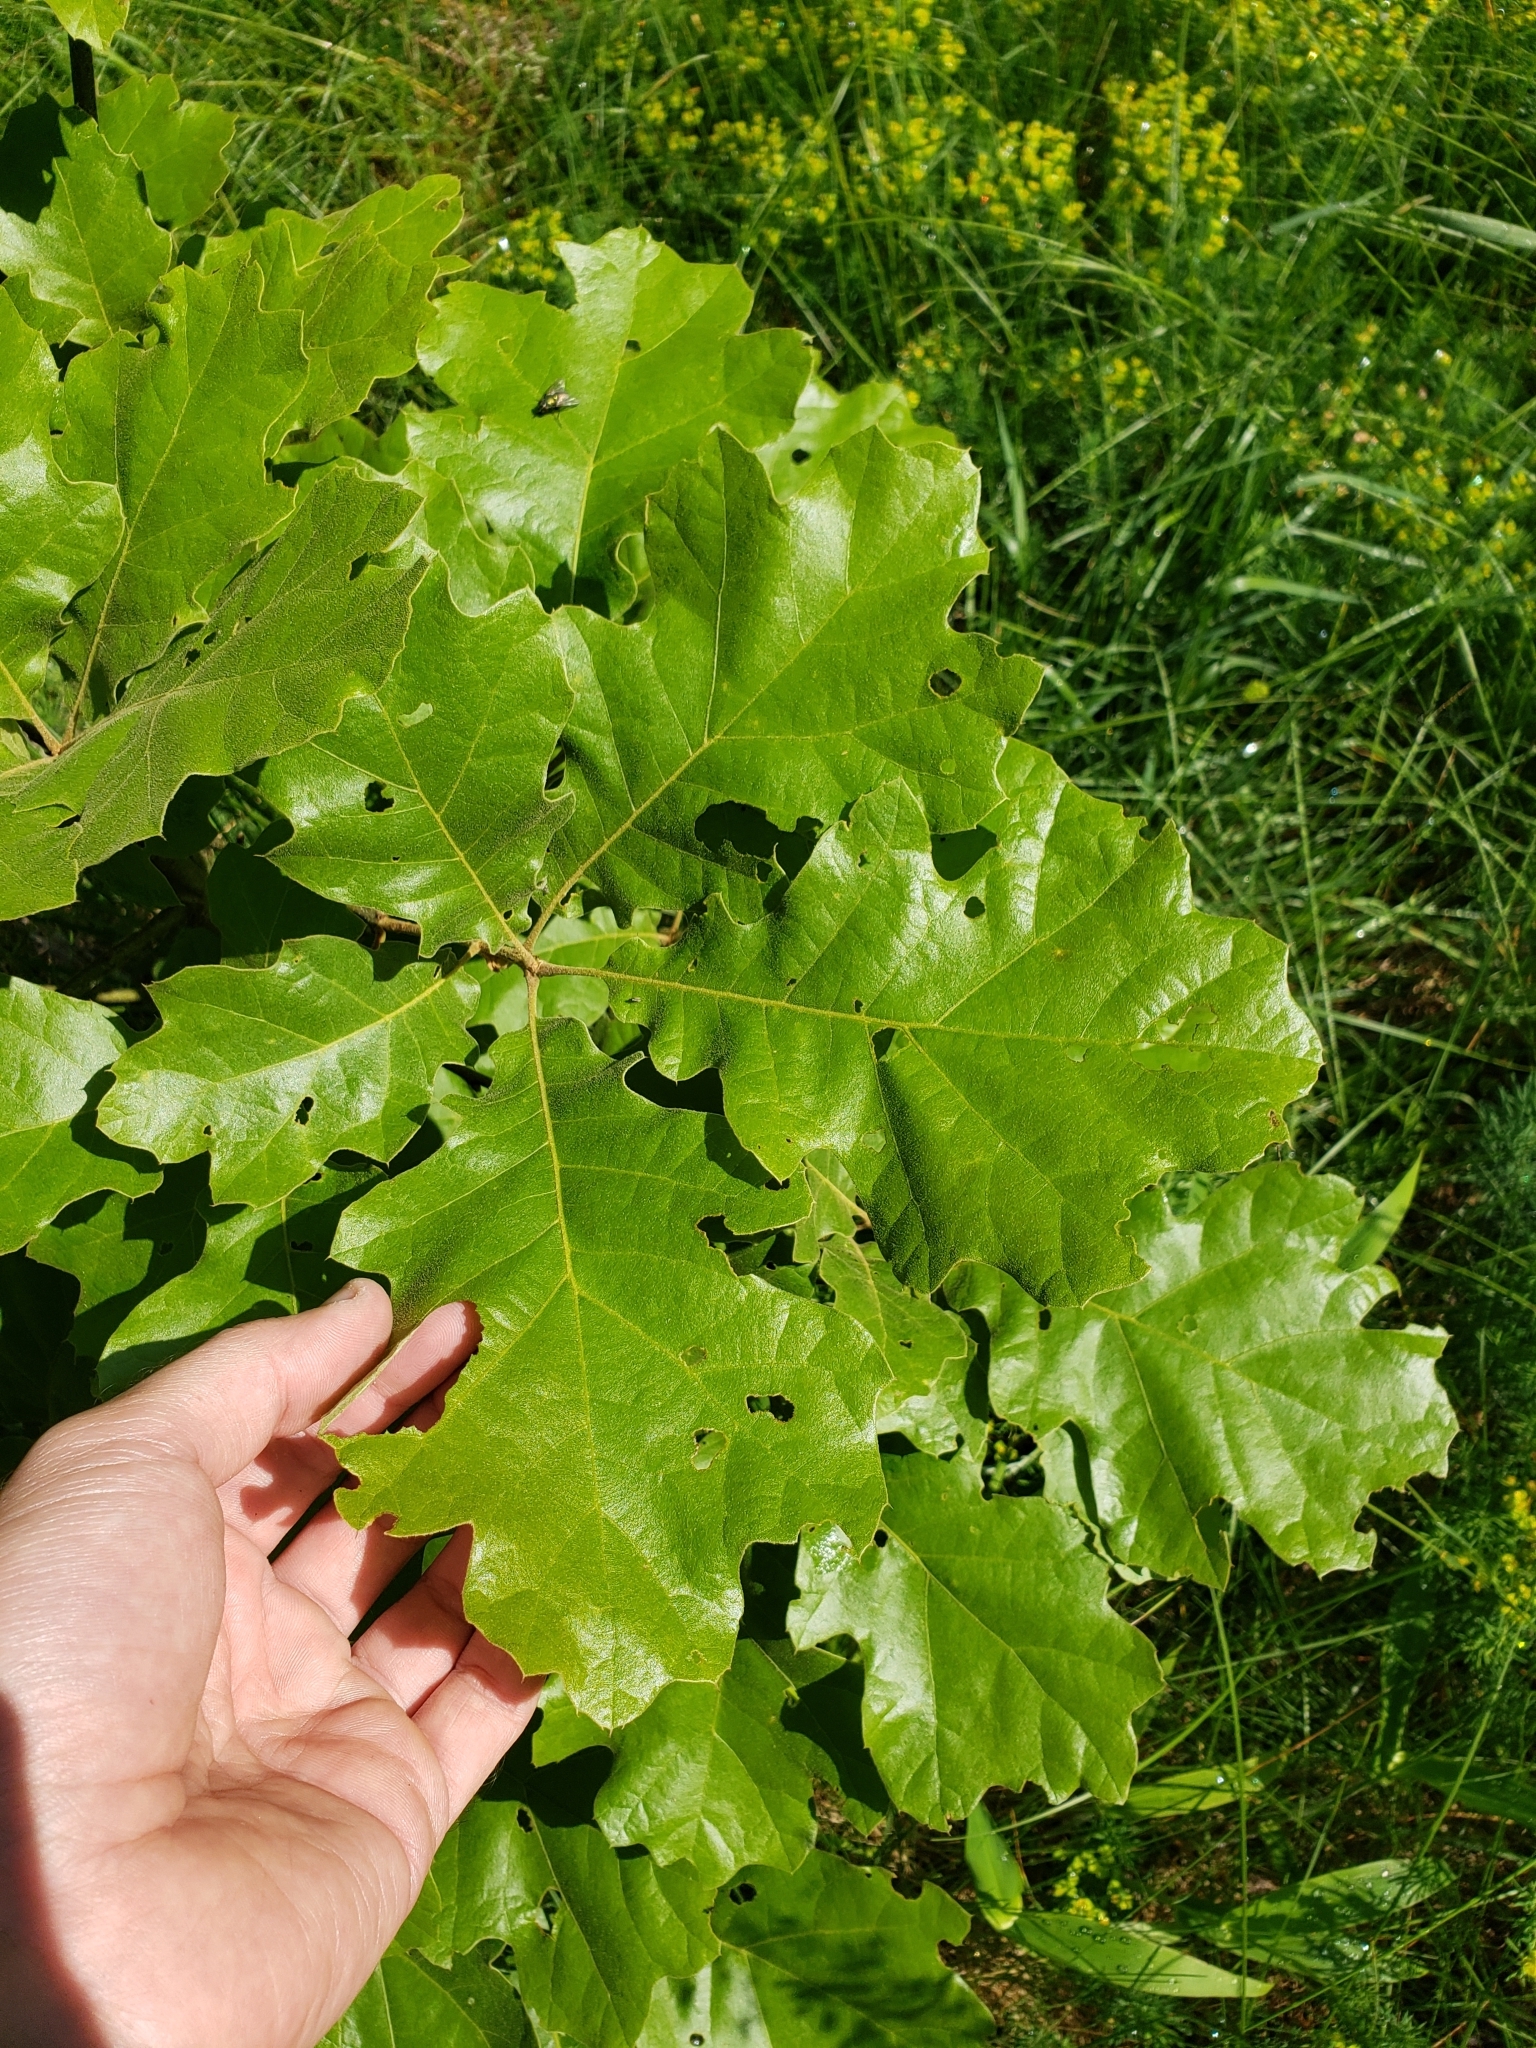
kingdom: Plantae
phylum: Tracheophyta
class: Magnoliopsida
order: Fagales
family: Fagaceae
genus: Quercus
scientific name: Quercus velutina
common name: Black oak
